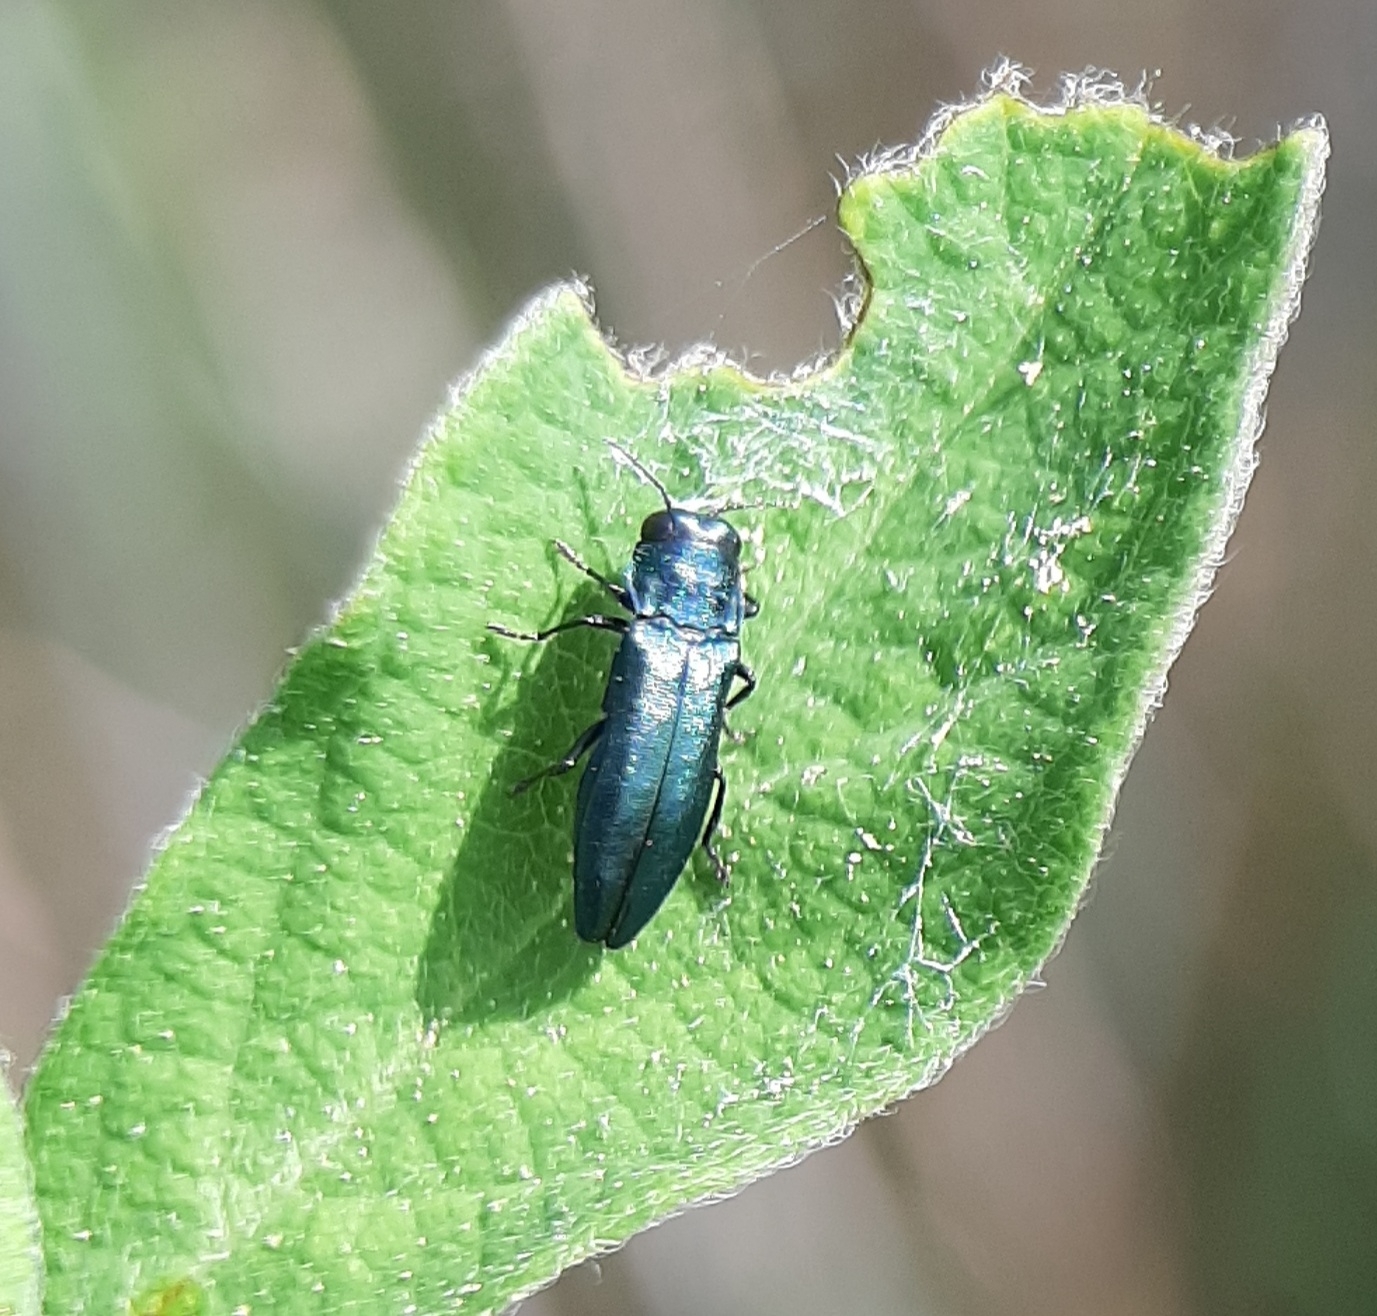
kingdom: Animalia
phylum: Arthropoda
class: Insecta
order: Coleoptera
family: Buprestidae
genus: Agrilus
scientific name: Agrilus cyanescens
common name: Bluish borer beetle
